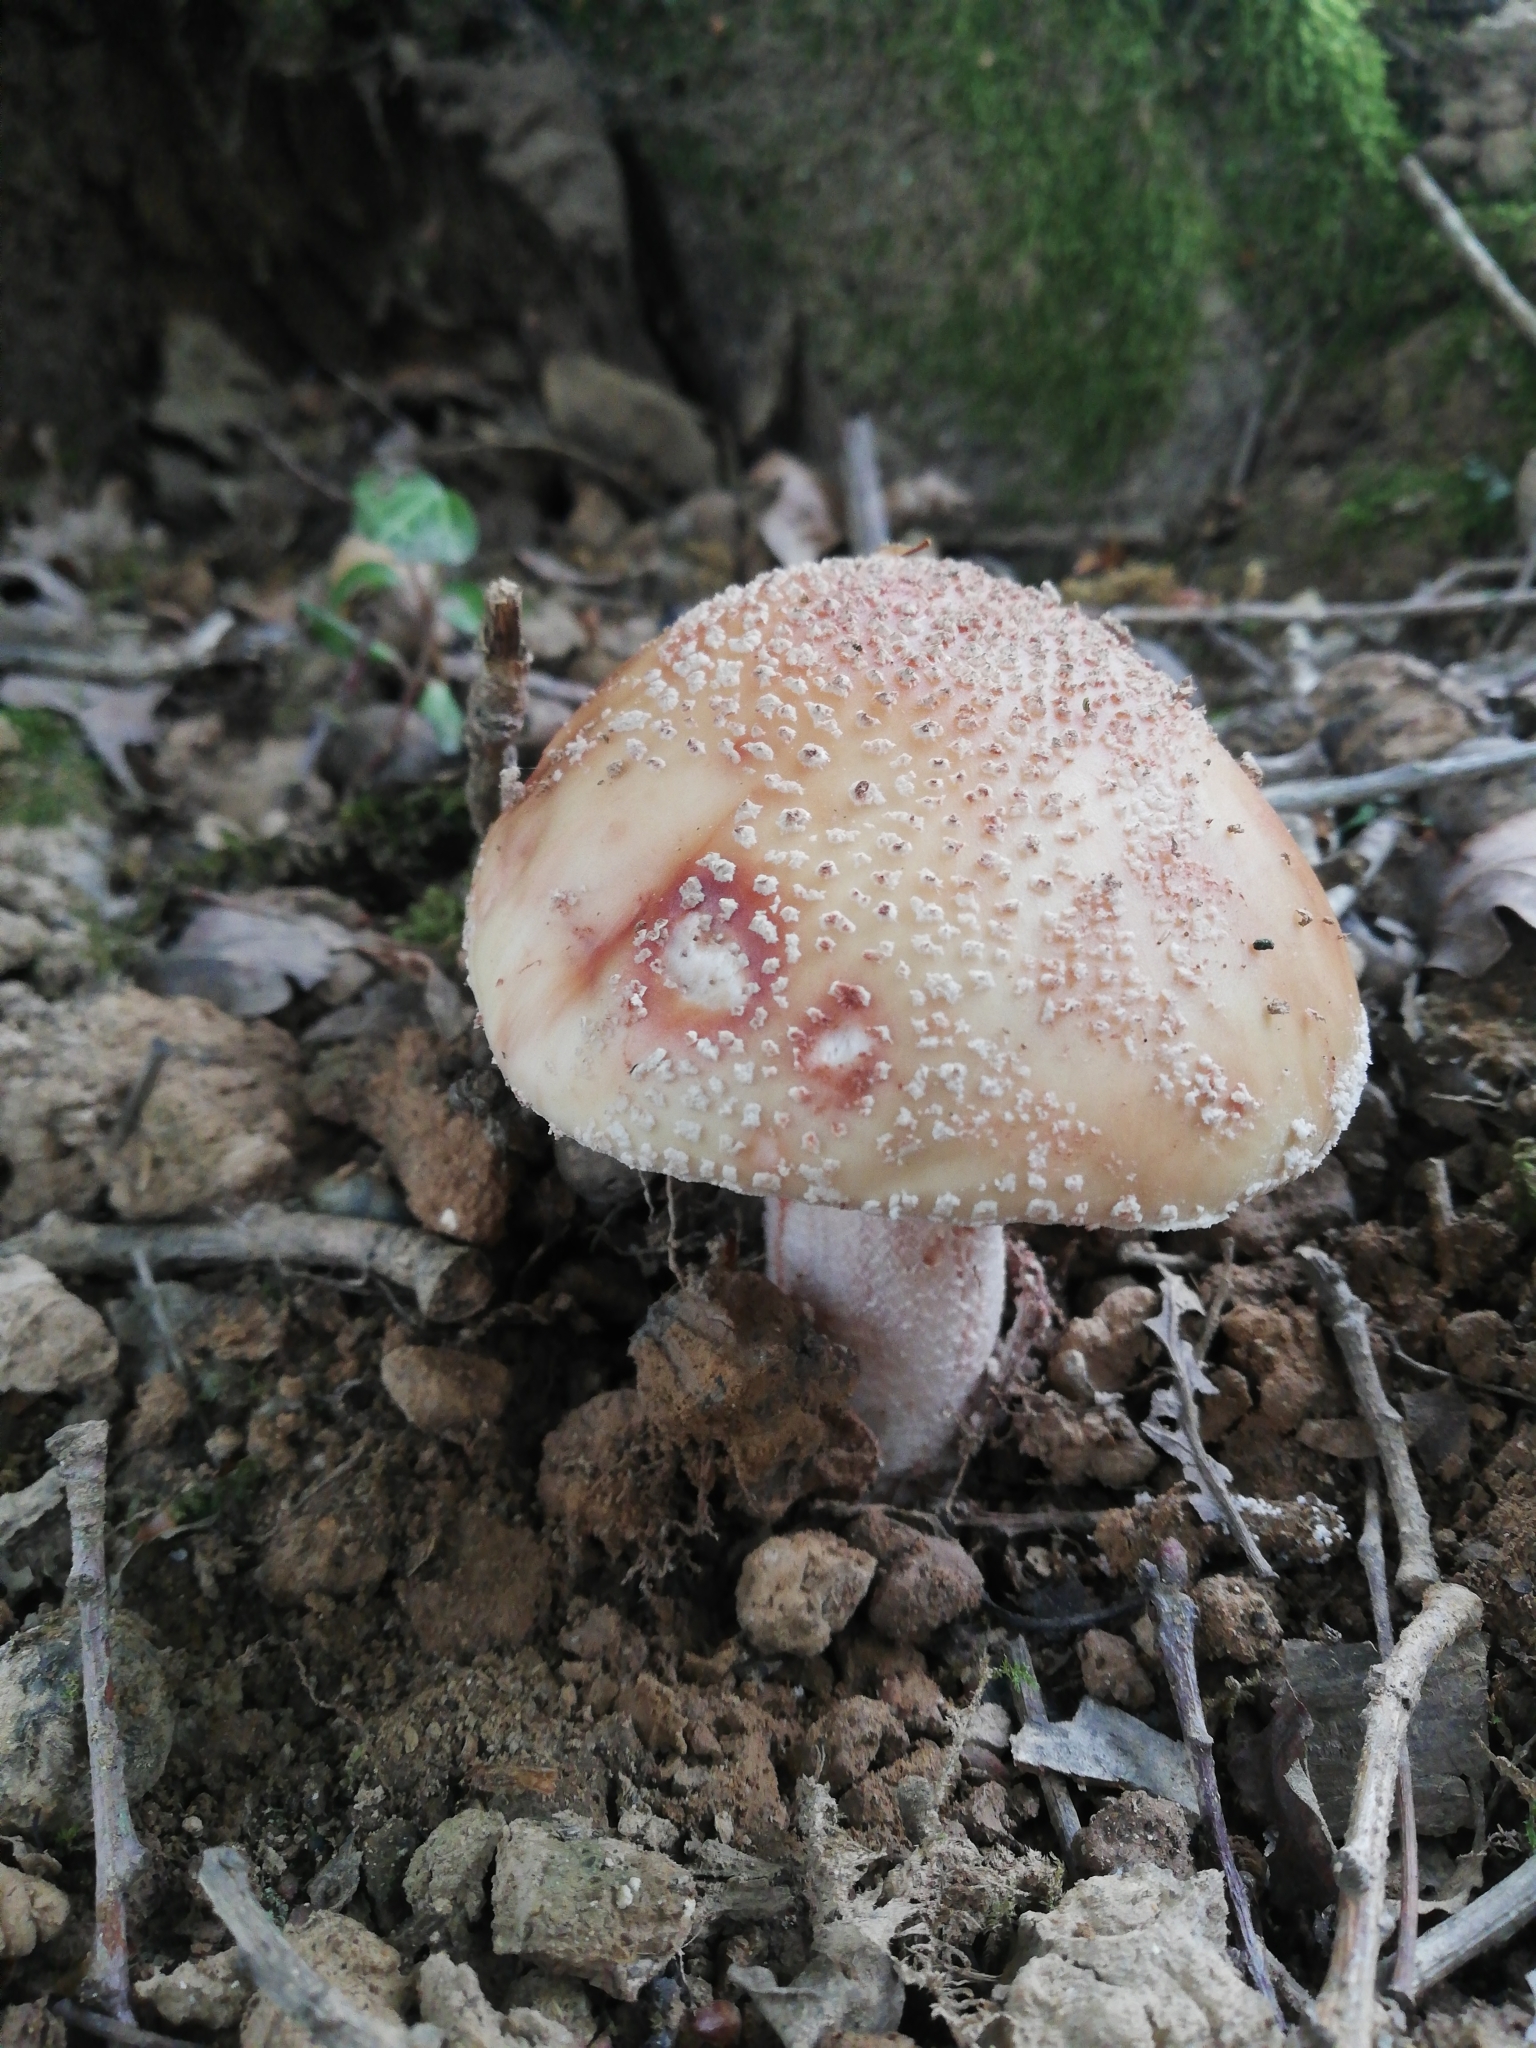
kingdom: Fungi
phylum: Basidiomycota
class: Agaricomycetes
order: Agaricales
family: Amanitaceae
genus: Amanita
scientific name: Amanita rubescens
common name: Blusher
